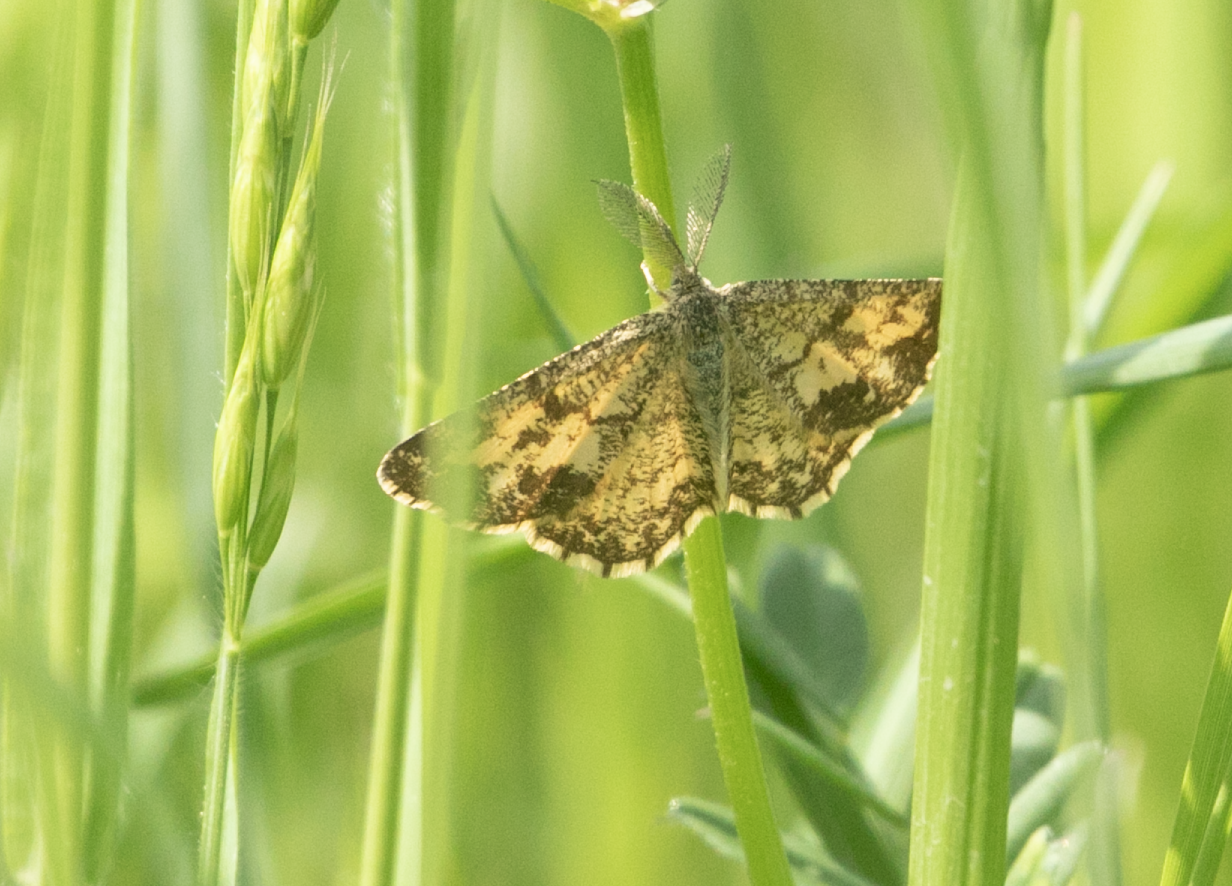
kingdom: Animalia
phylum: Arthropoda
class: Insecta
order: Lepidoptera
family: Geometridae
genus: Ematurga
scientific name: Ematurga atomaria
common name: Common heath
